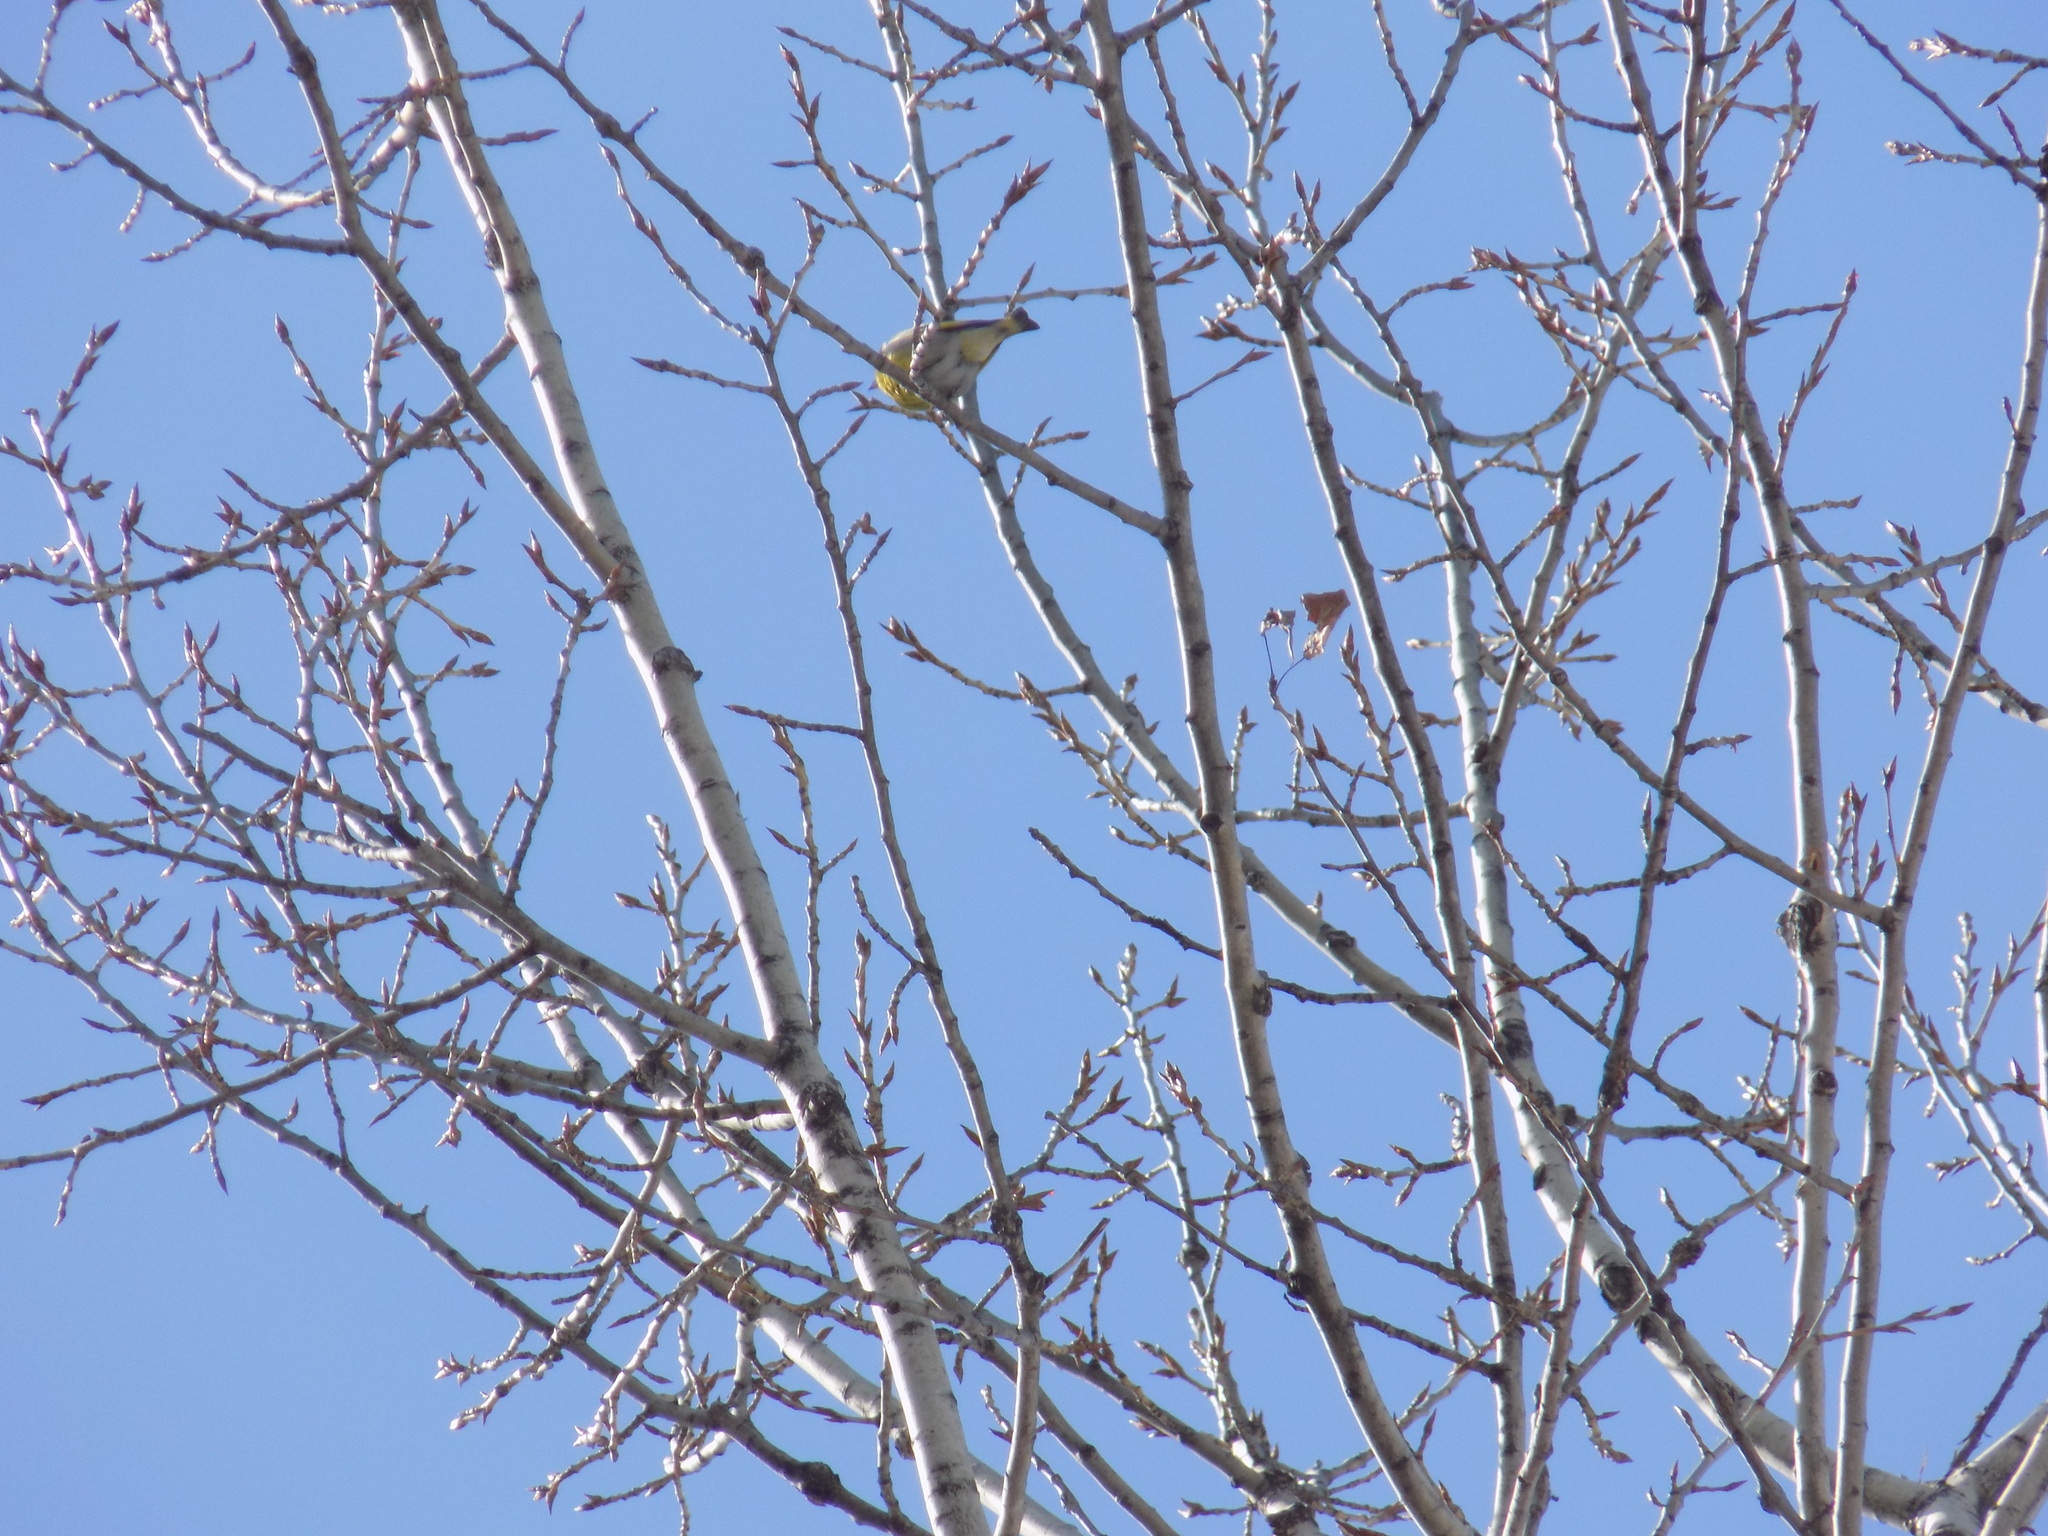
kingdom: Plantae
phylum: Tracheophyta
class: Liliopsida
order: Poales
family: Poaceae
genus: Chloris
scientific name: Chloris chloris
